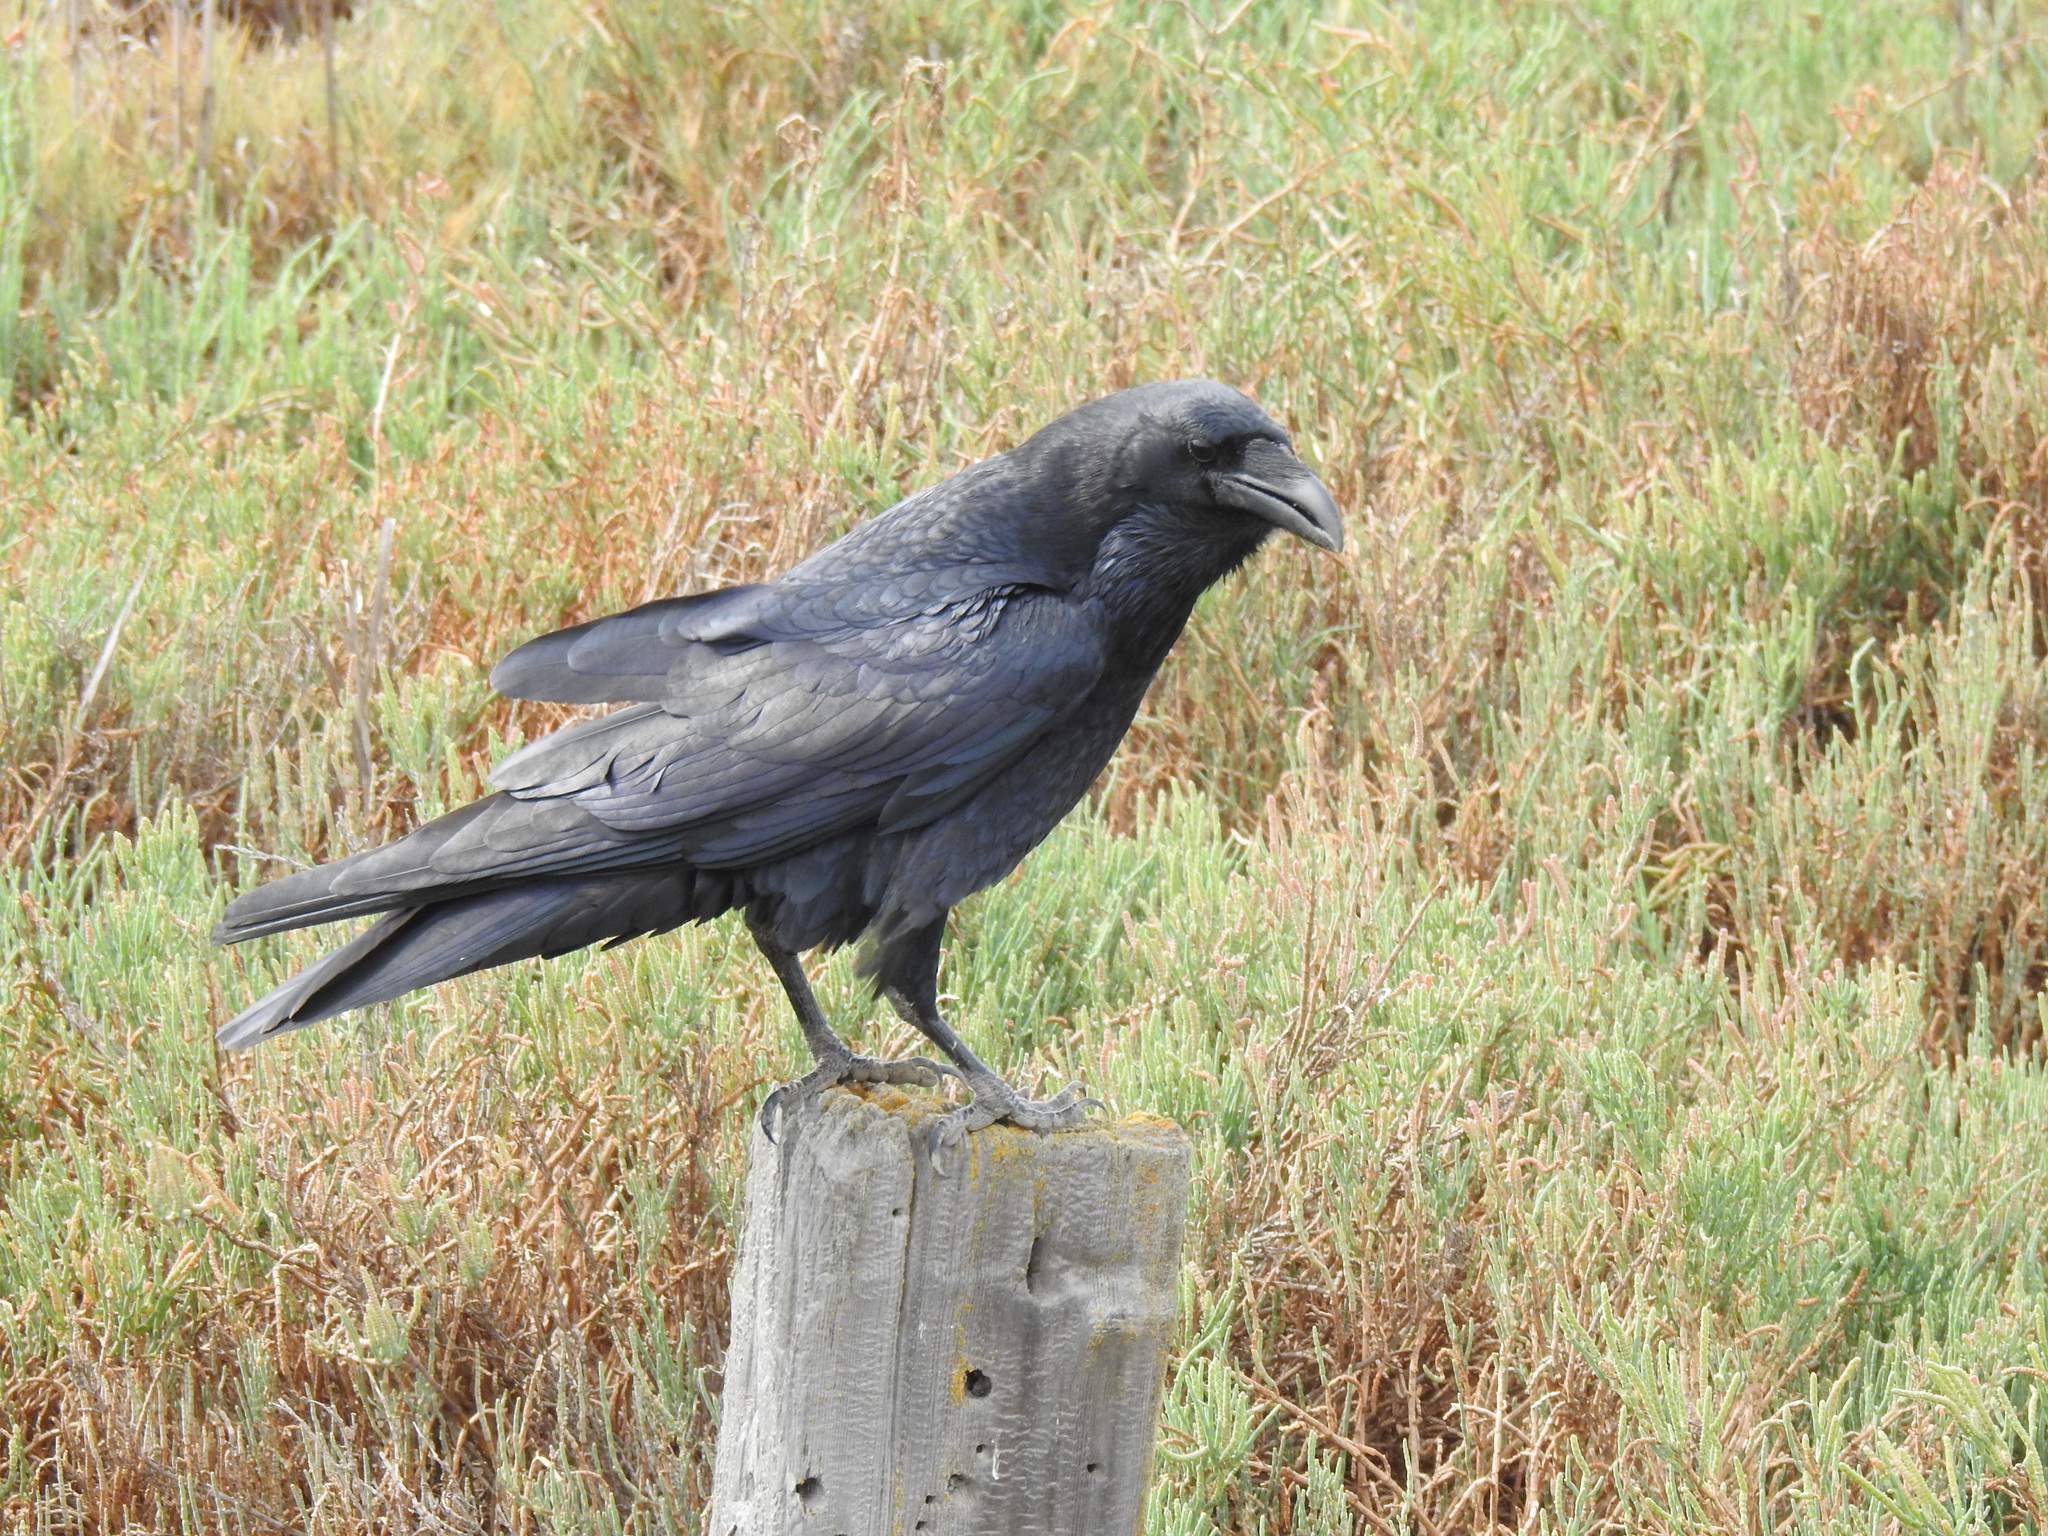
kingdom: Animalia
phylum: Chordata
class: Aves
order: Passeriformes
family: Corvidae
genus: Corvus
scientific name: Corvus corax
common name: Common raven
